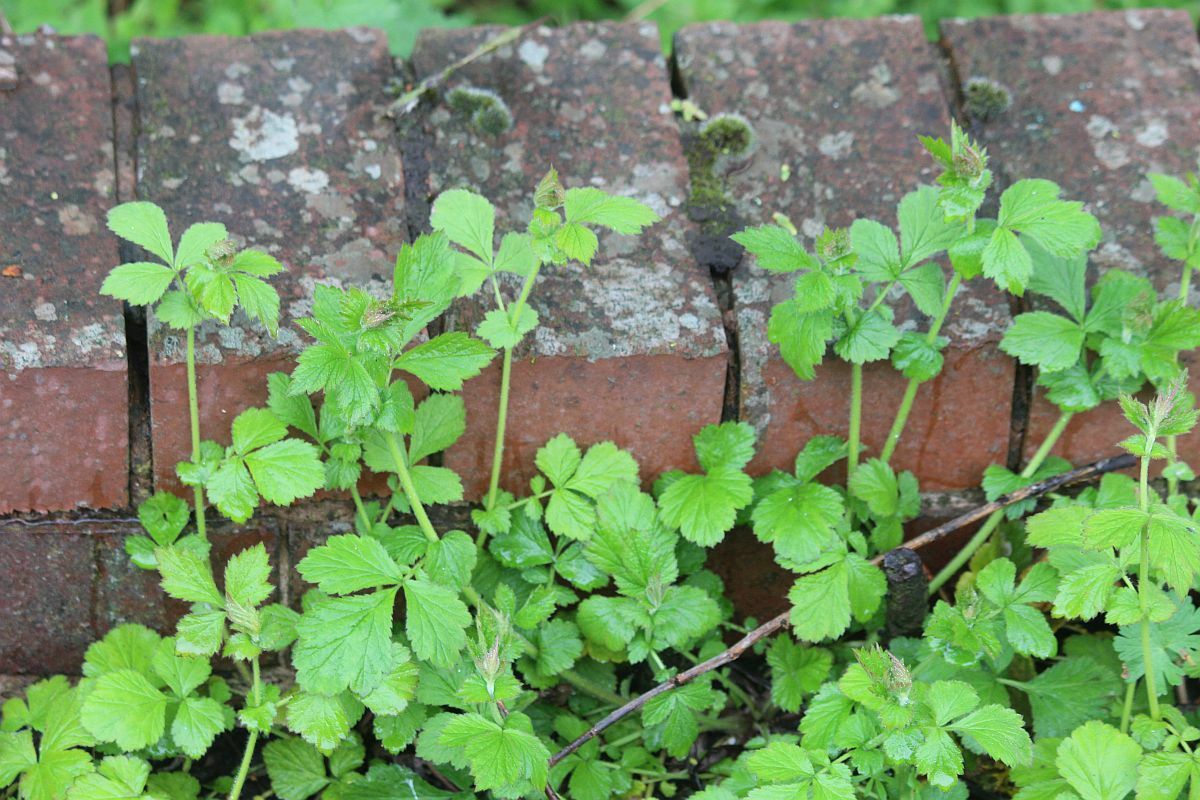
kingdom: Plantae
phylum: Tracheophyta
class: Magnoliopsida
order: Rosales
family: Rosaceae
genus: Geum
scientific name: Geum urbanum
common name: Wood avens
